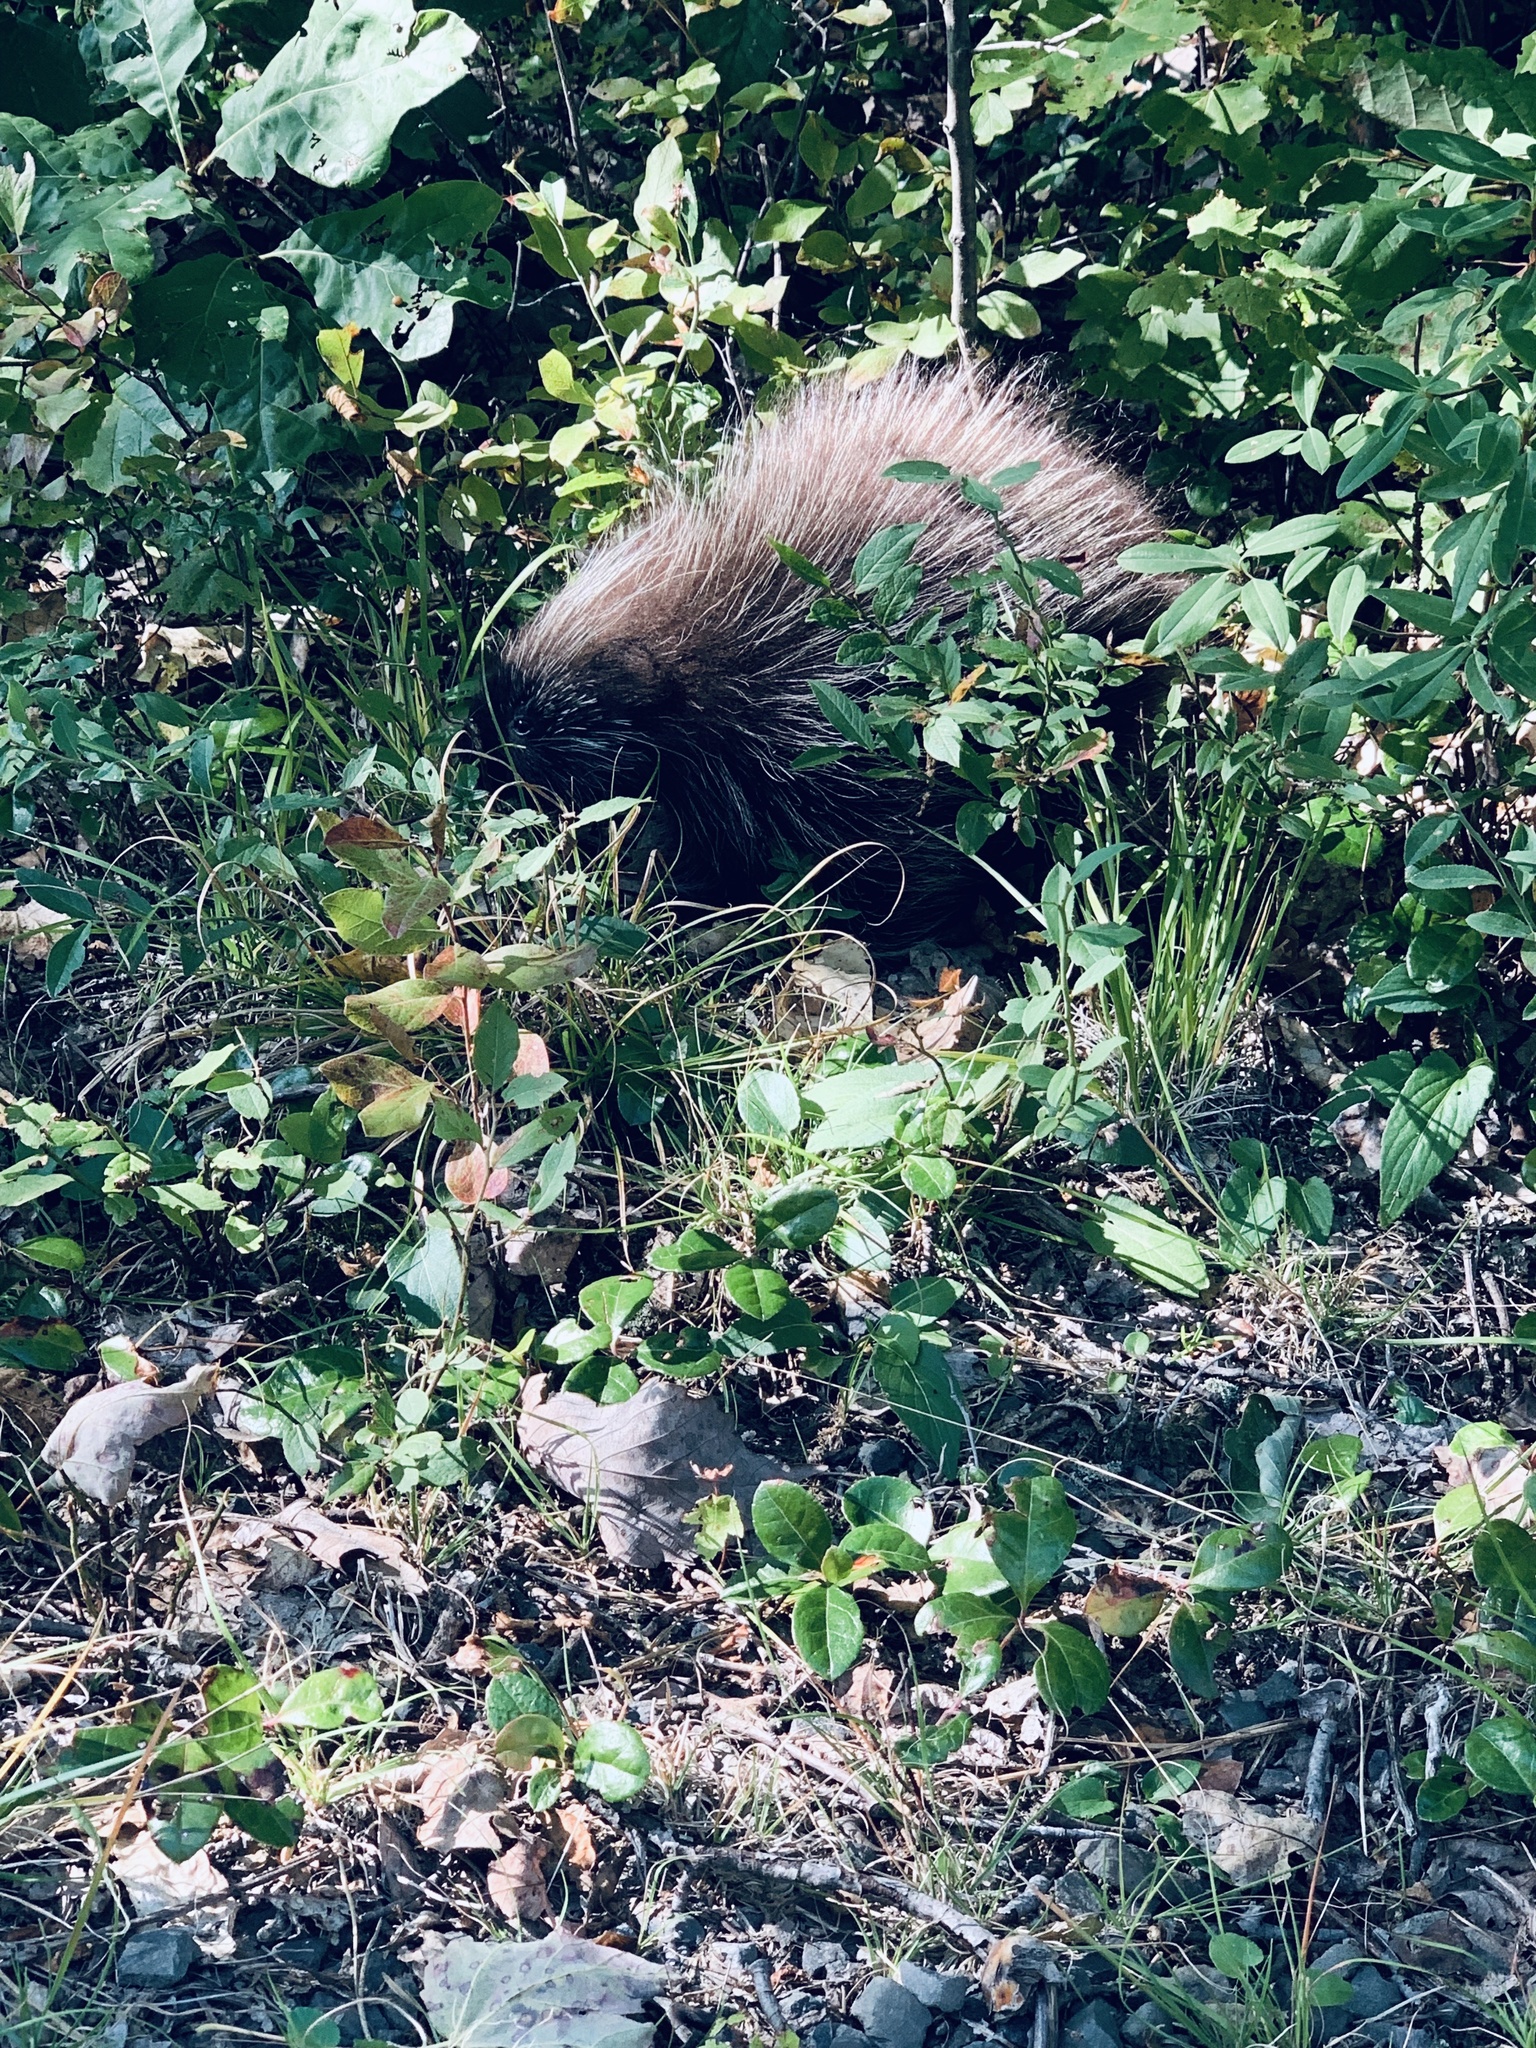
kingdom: Animalia
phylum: Chordata
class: Mammalia
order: Rodentia
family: Erethizontidae
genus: Erethizon
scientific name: Erethizon dorsatus
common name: North american porcupine
